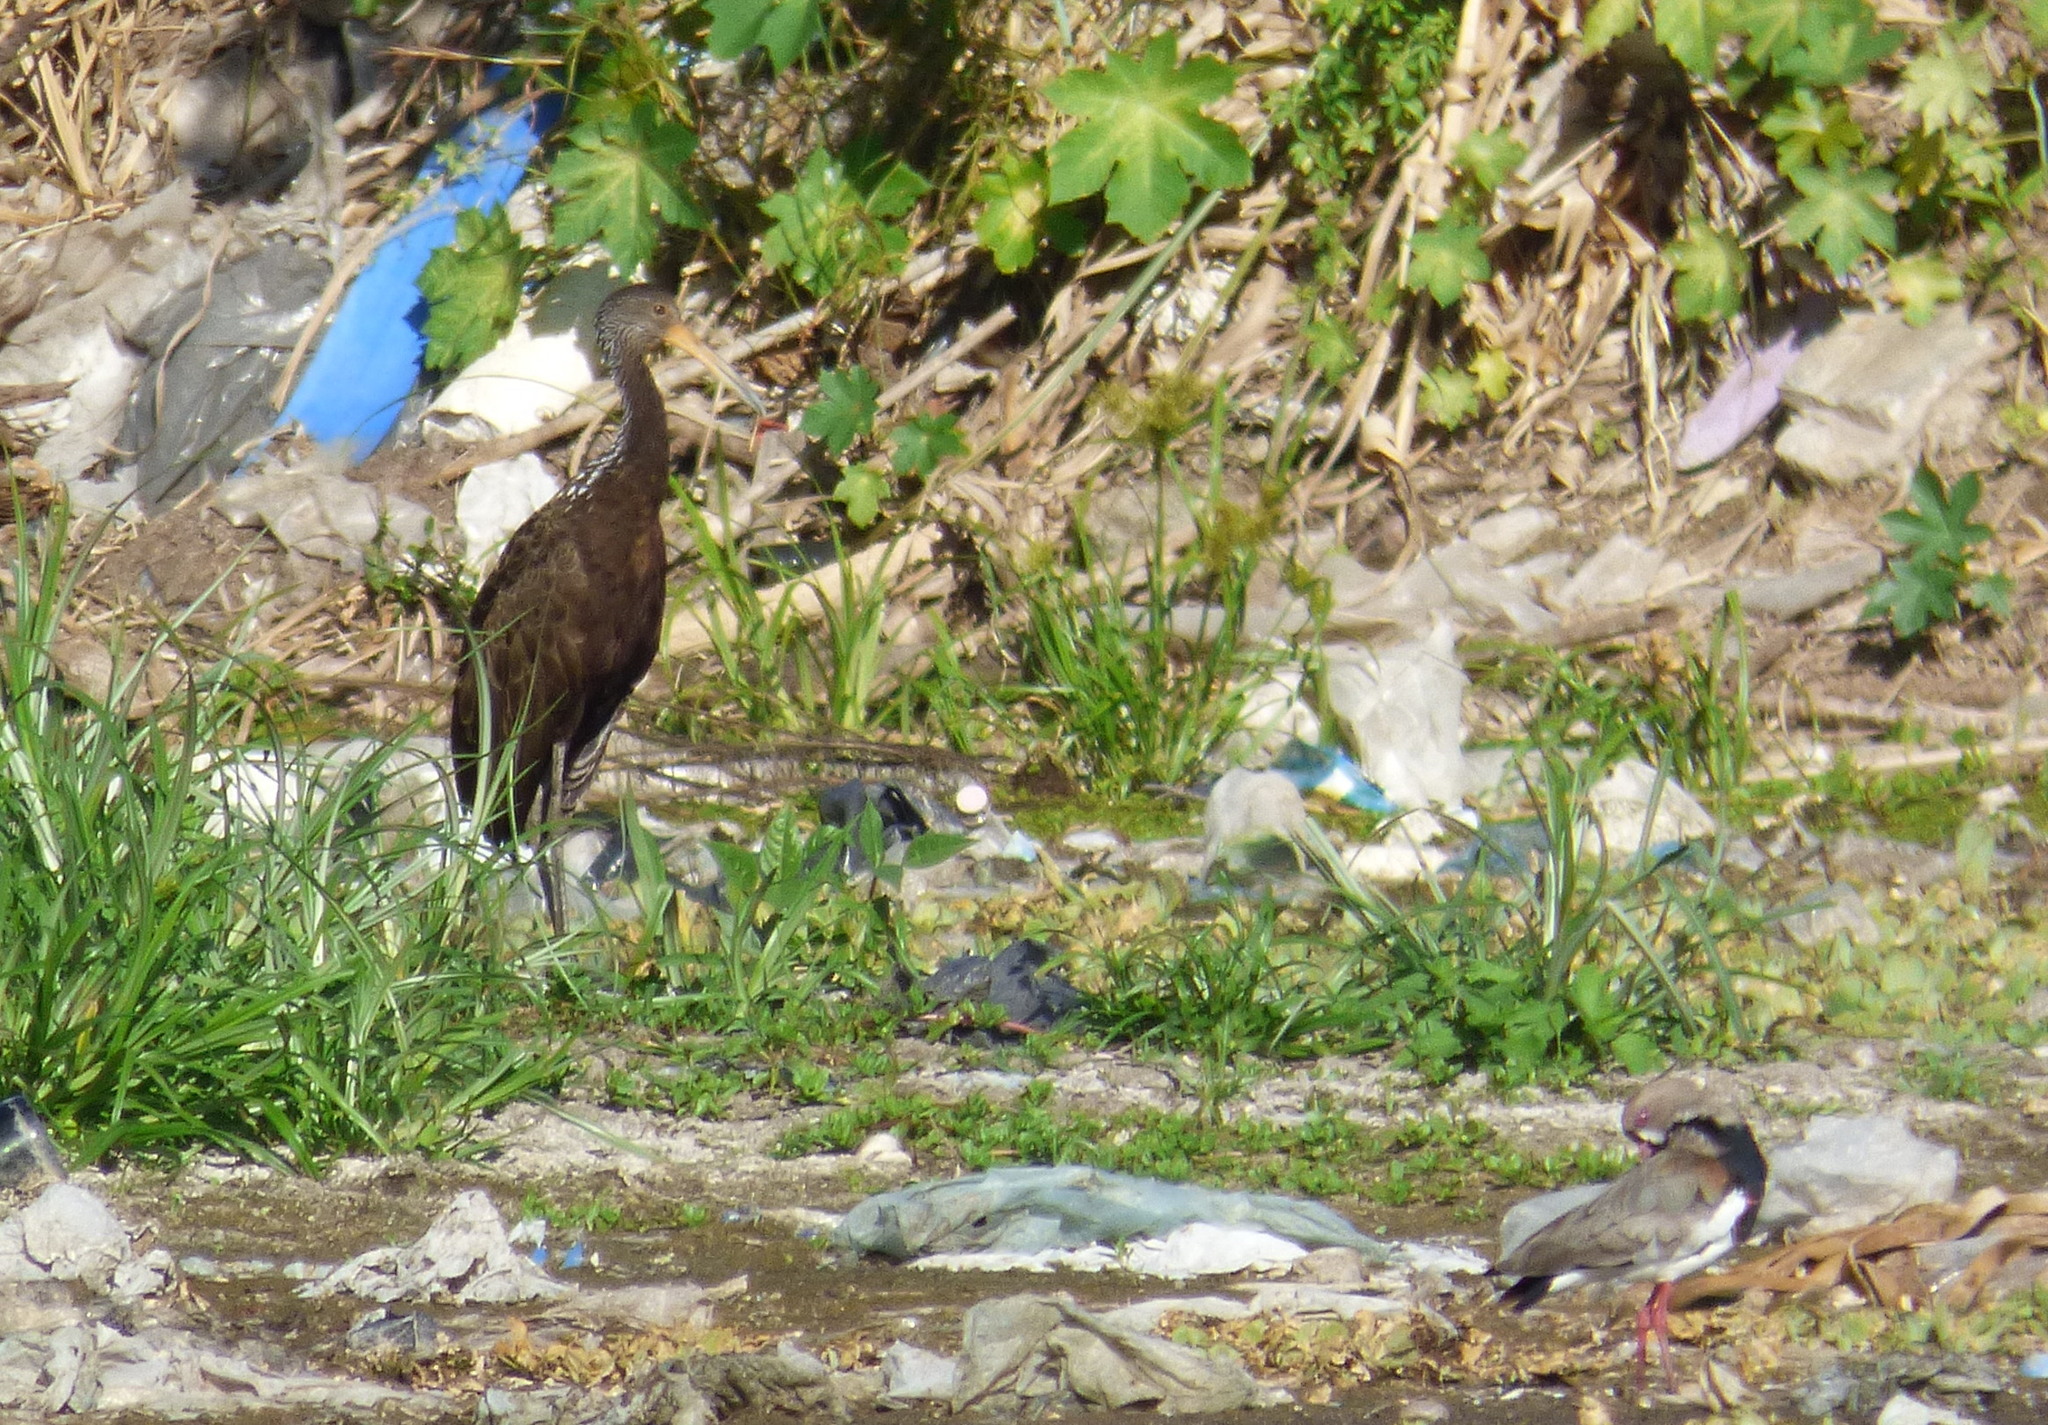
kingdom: Animalia
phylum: Chordata
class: Aves
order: Gruiformes
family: Aramidae
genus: Aramus
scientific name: Aramus guarauna
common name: Limpkin
